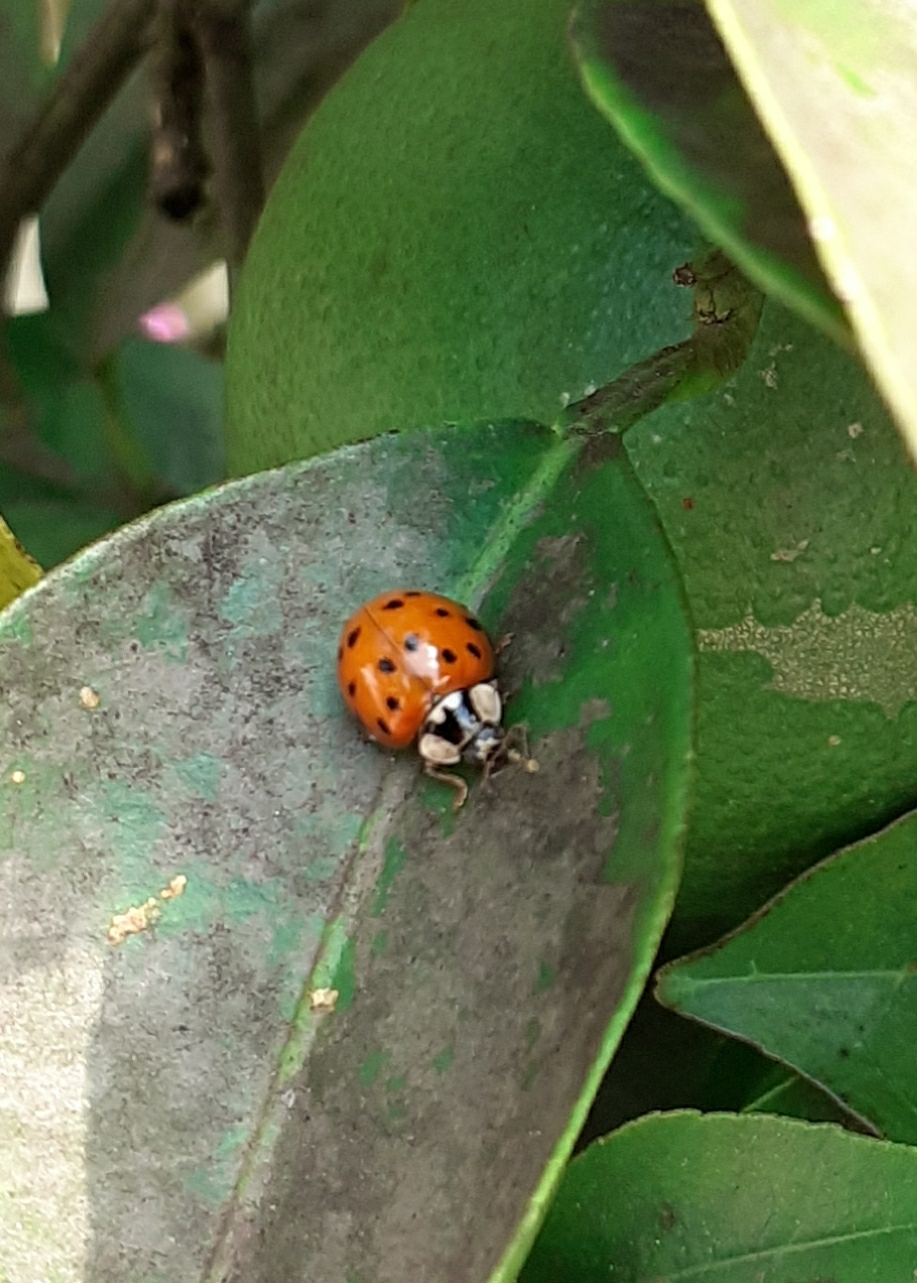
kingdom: Animalia
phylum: Arthropoda
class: Insecta
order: Coleoptera
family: Coccinellidae
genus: Harmonia
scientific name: Harmonia axyridis
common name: Harlequin ladybird
